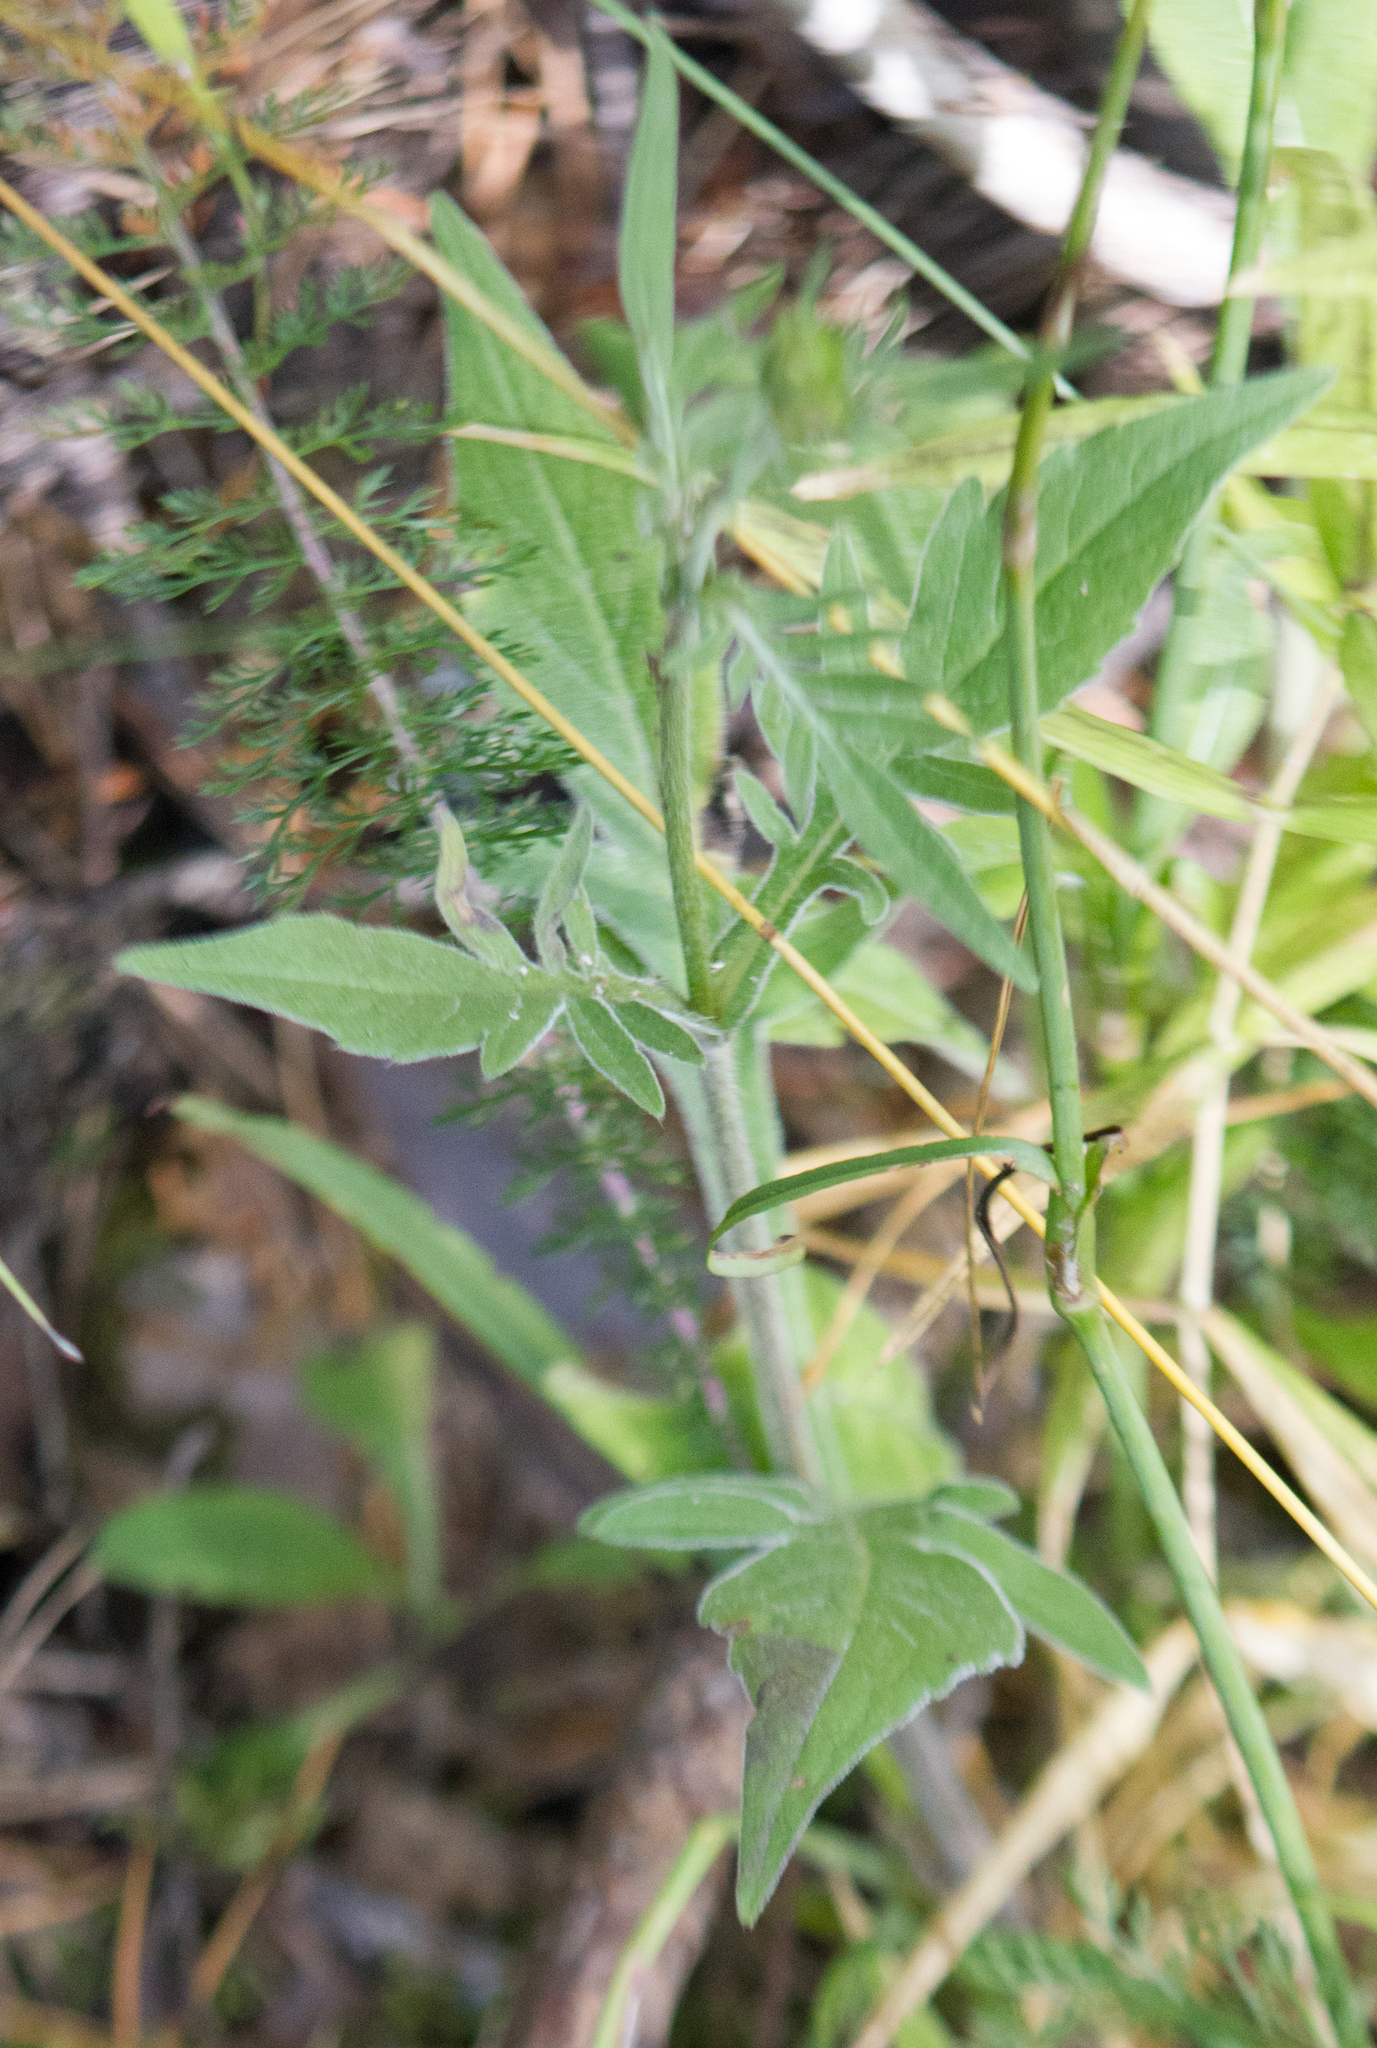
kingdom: Plantae
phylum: Tracheophyta
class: Magnoliopsida
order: Dipsacales
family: Caprifoliaceae
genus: Knautia
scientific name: Knautia arvensis
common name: Field scabiosa
